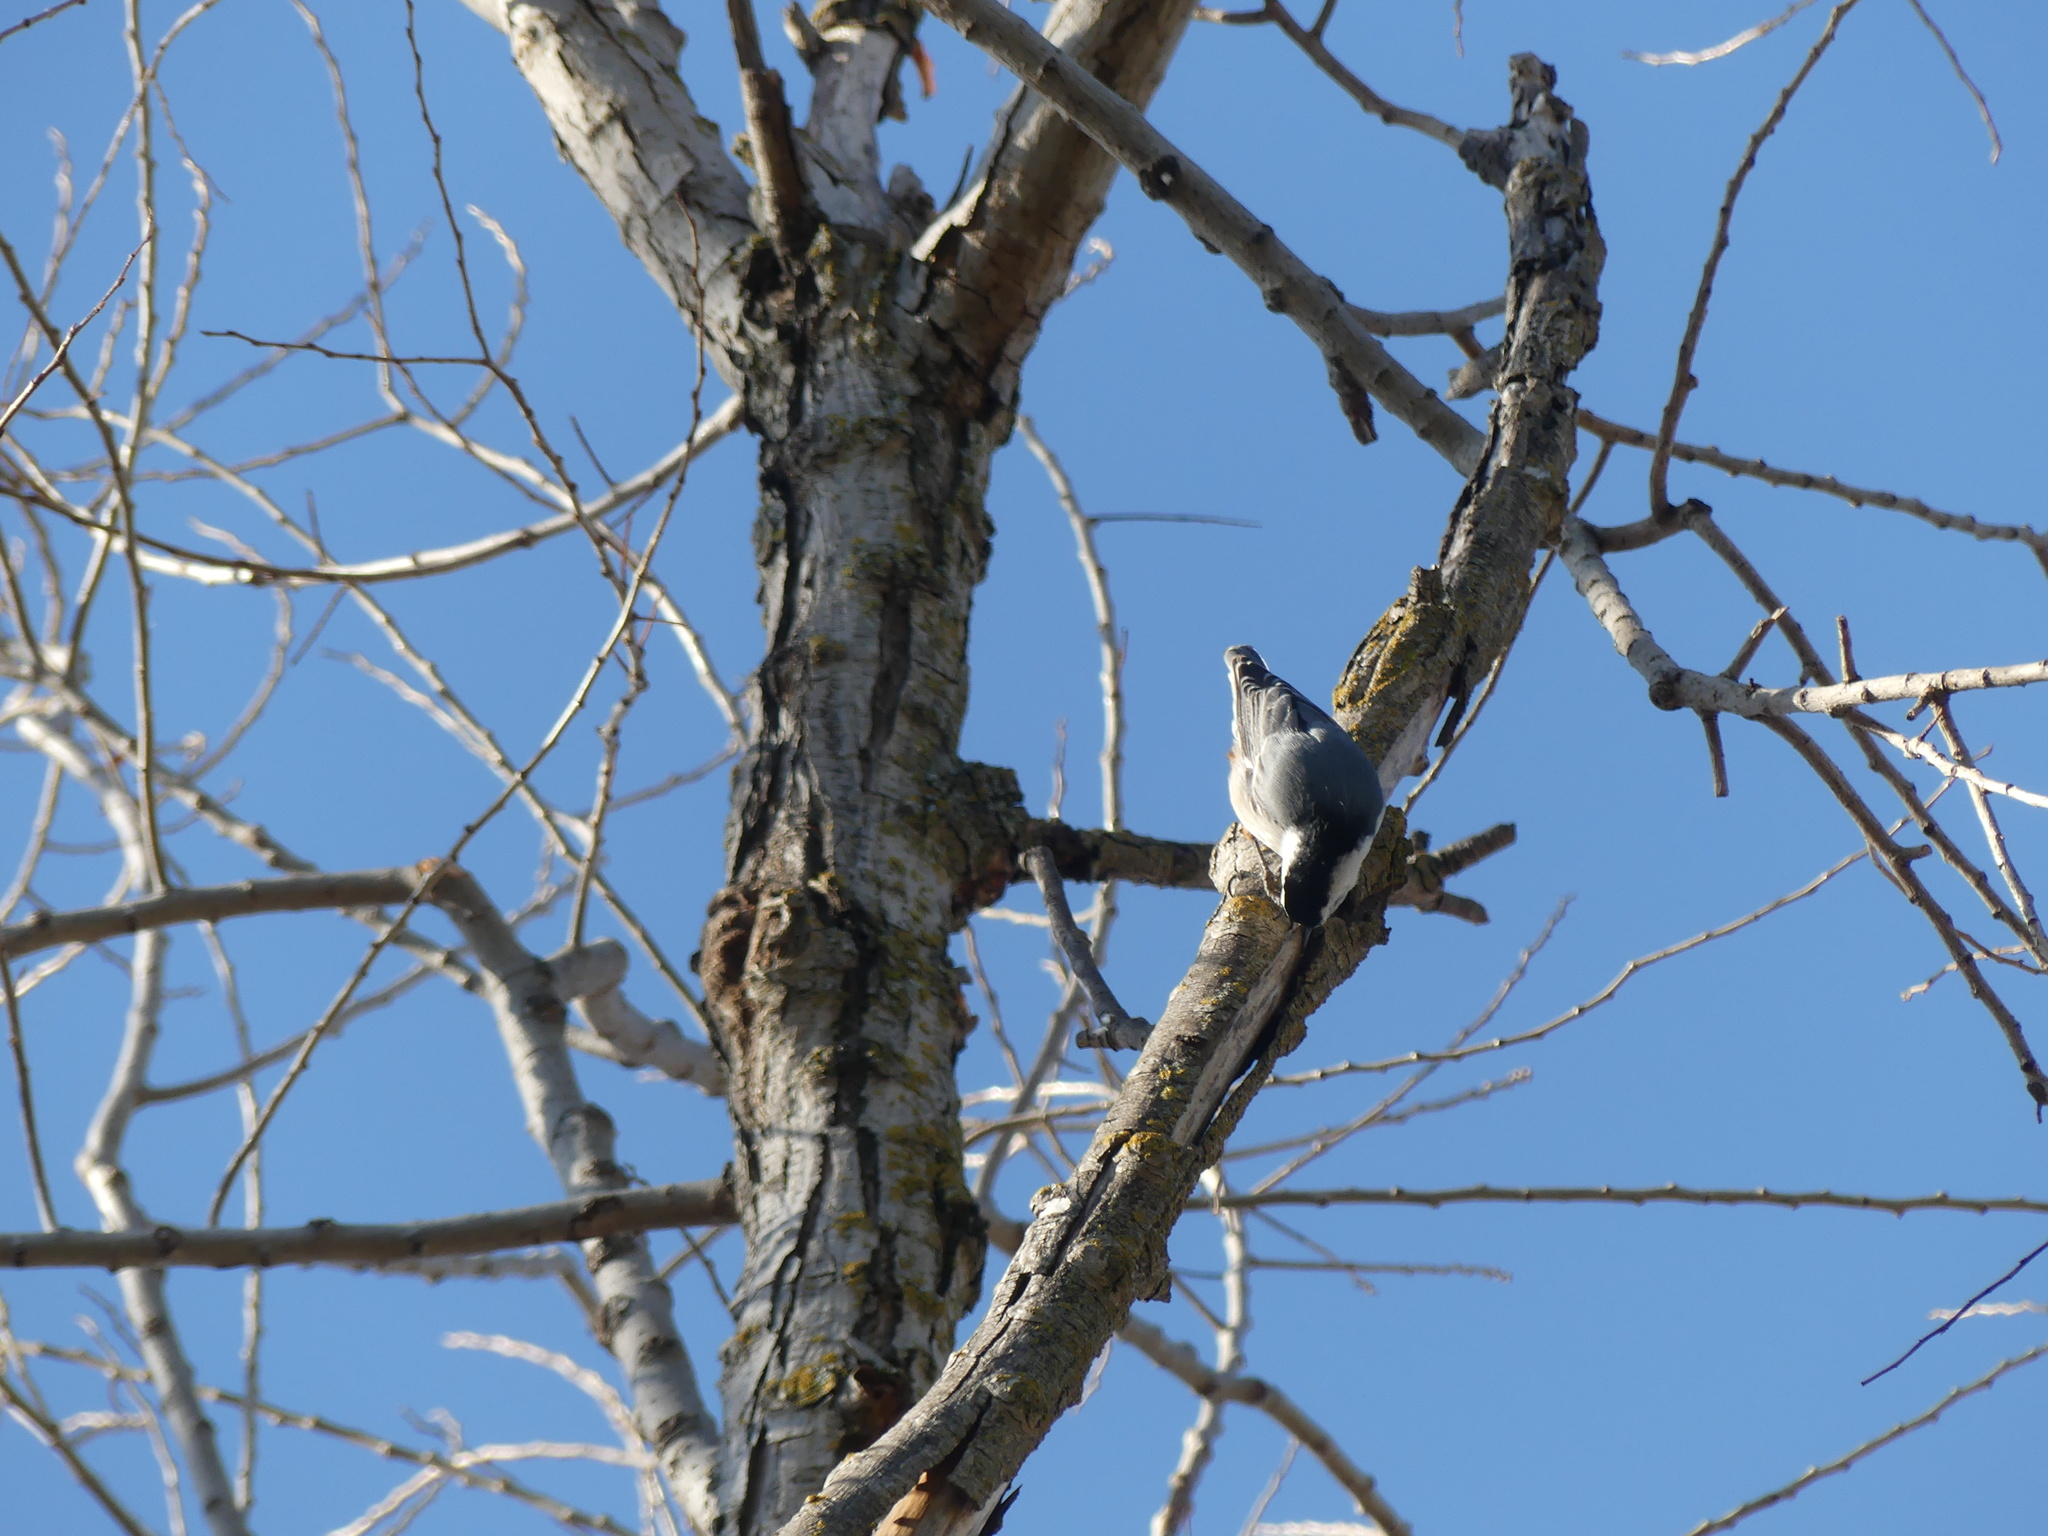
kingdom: Animalia
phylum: Chordata
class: Aves
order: Passeriformes
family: Sittidae
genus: Sitta
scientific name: Sitta carolinensis
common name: White-breasted nuthatch
